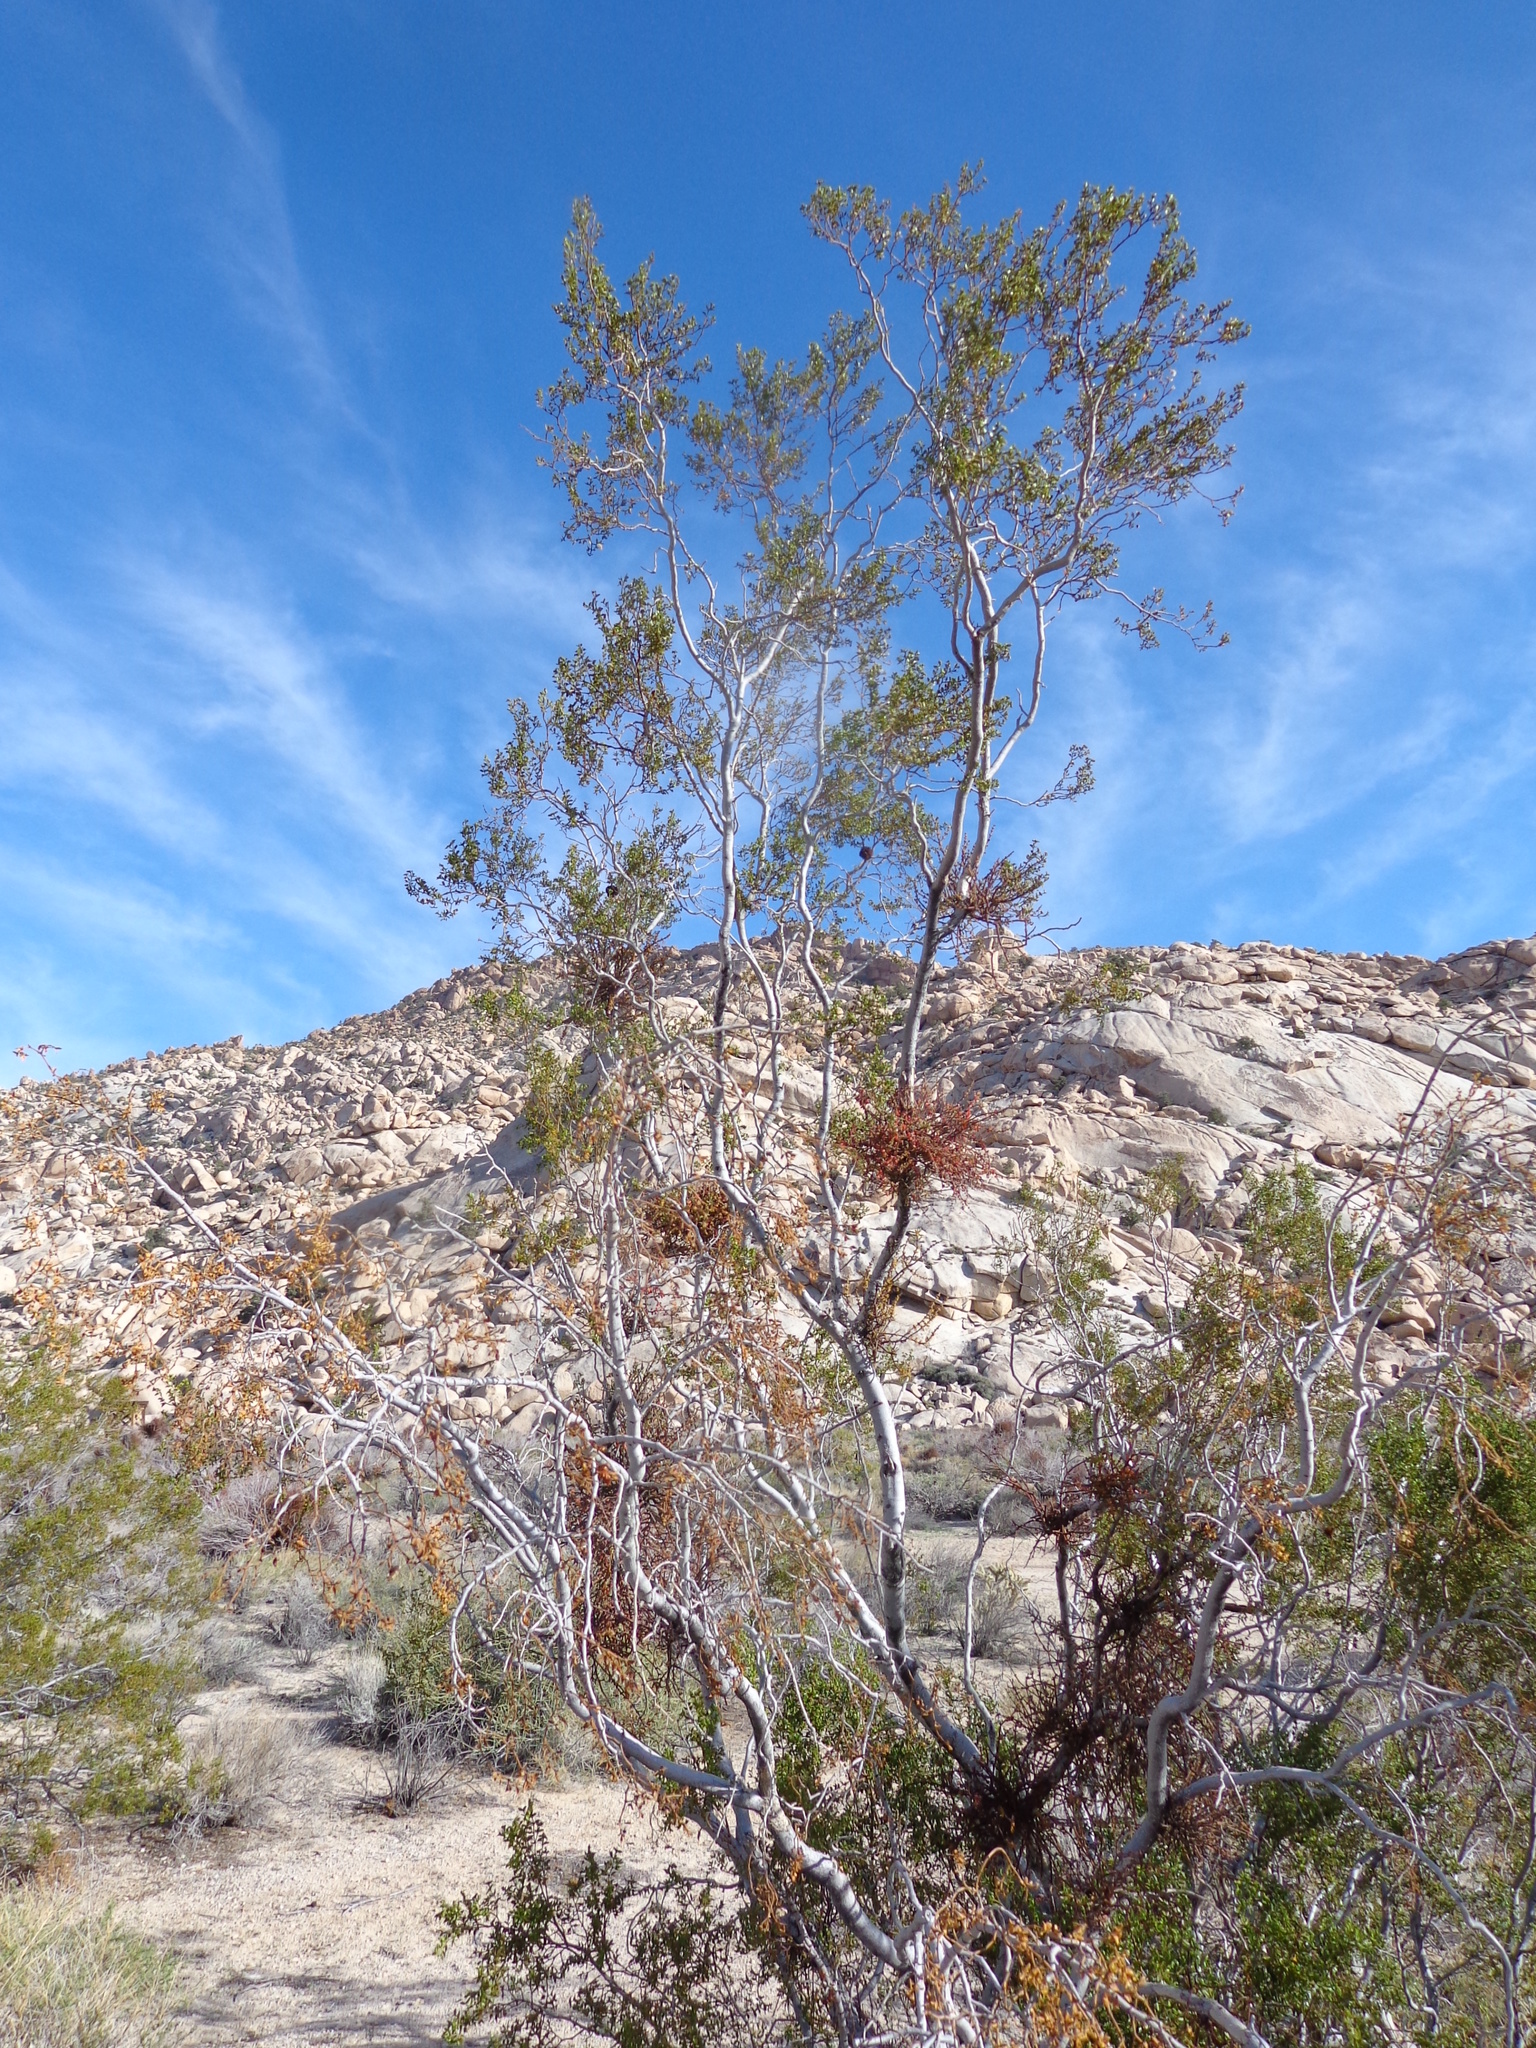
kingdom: Plantae
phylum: Tracheophyta
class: Magnoliopsida
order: Zygophyllales
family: Zygophyllaceae
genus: Larrea
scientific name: Larrea tridentata
